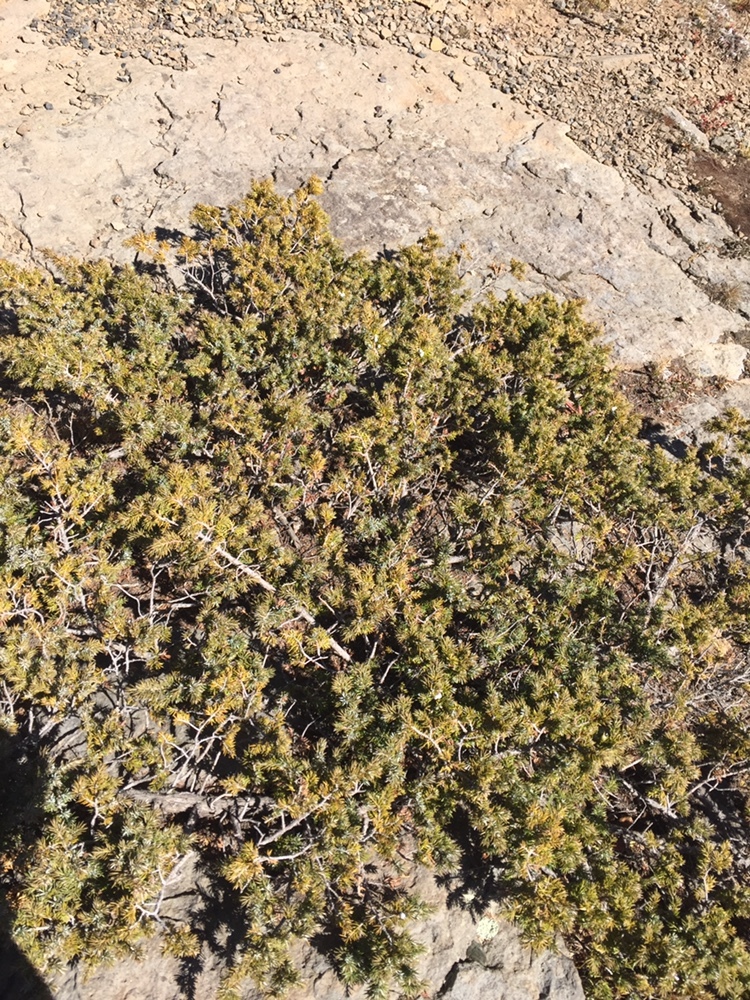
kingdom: Plantae
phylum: Tracheophyta
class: Pinopsida
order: Pinales
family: Cupressaceae
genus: Juniperus
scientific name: Juniperus communis
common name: Common juniper
